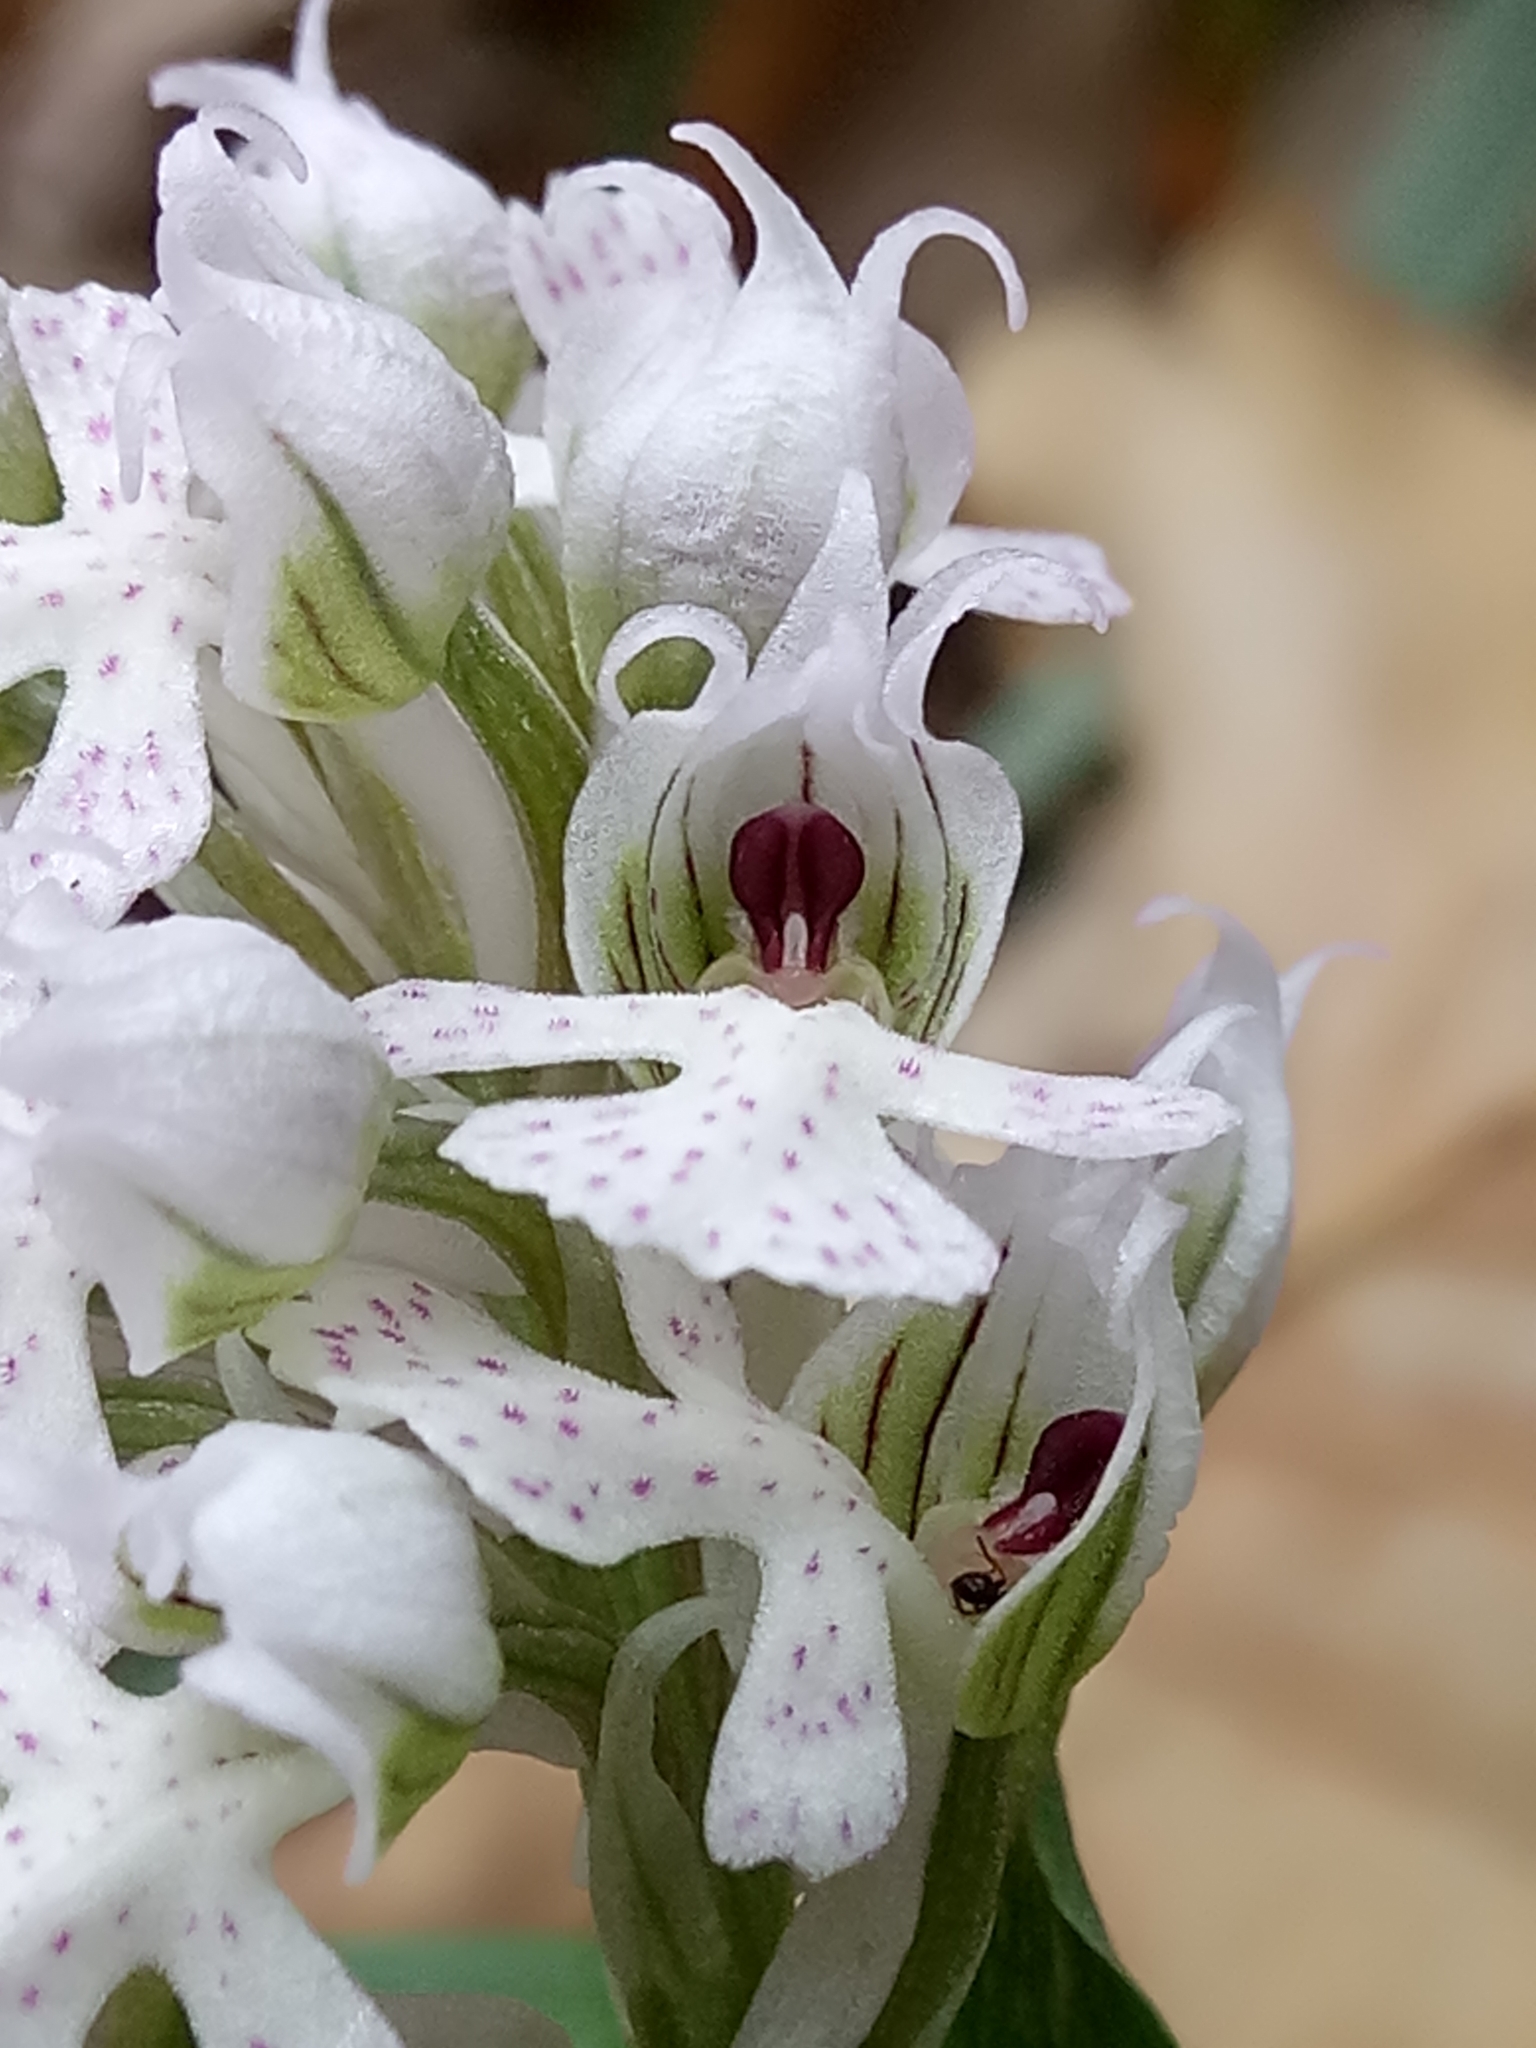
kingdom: Plantae
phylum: Tracheophyta
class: Liliopsida
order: Asparagales
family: Orchidaceae
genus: Neotinea
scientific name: Neotinea conica
